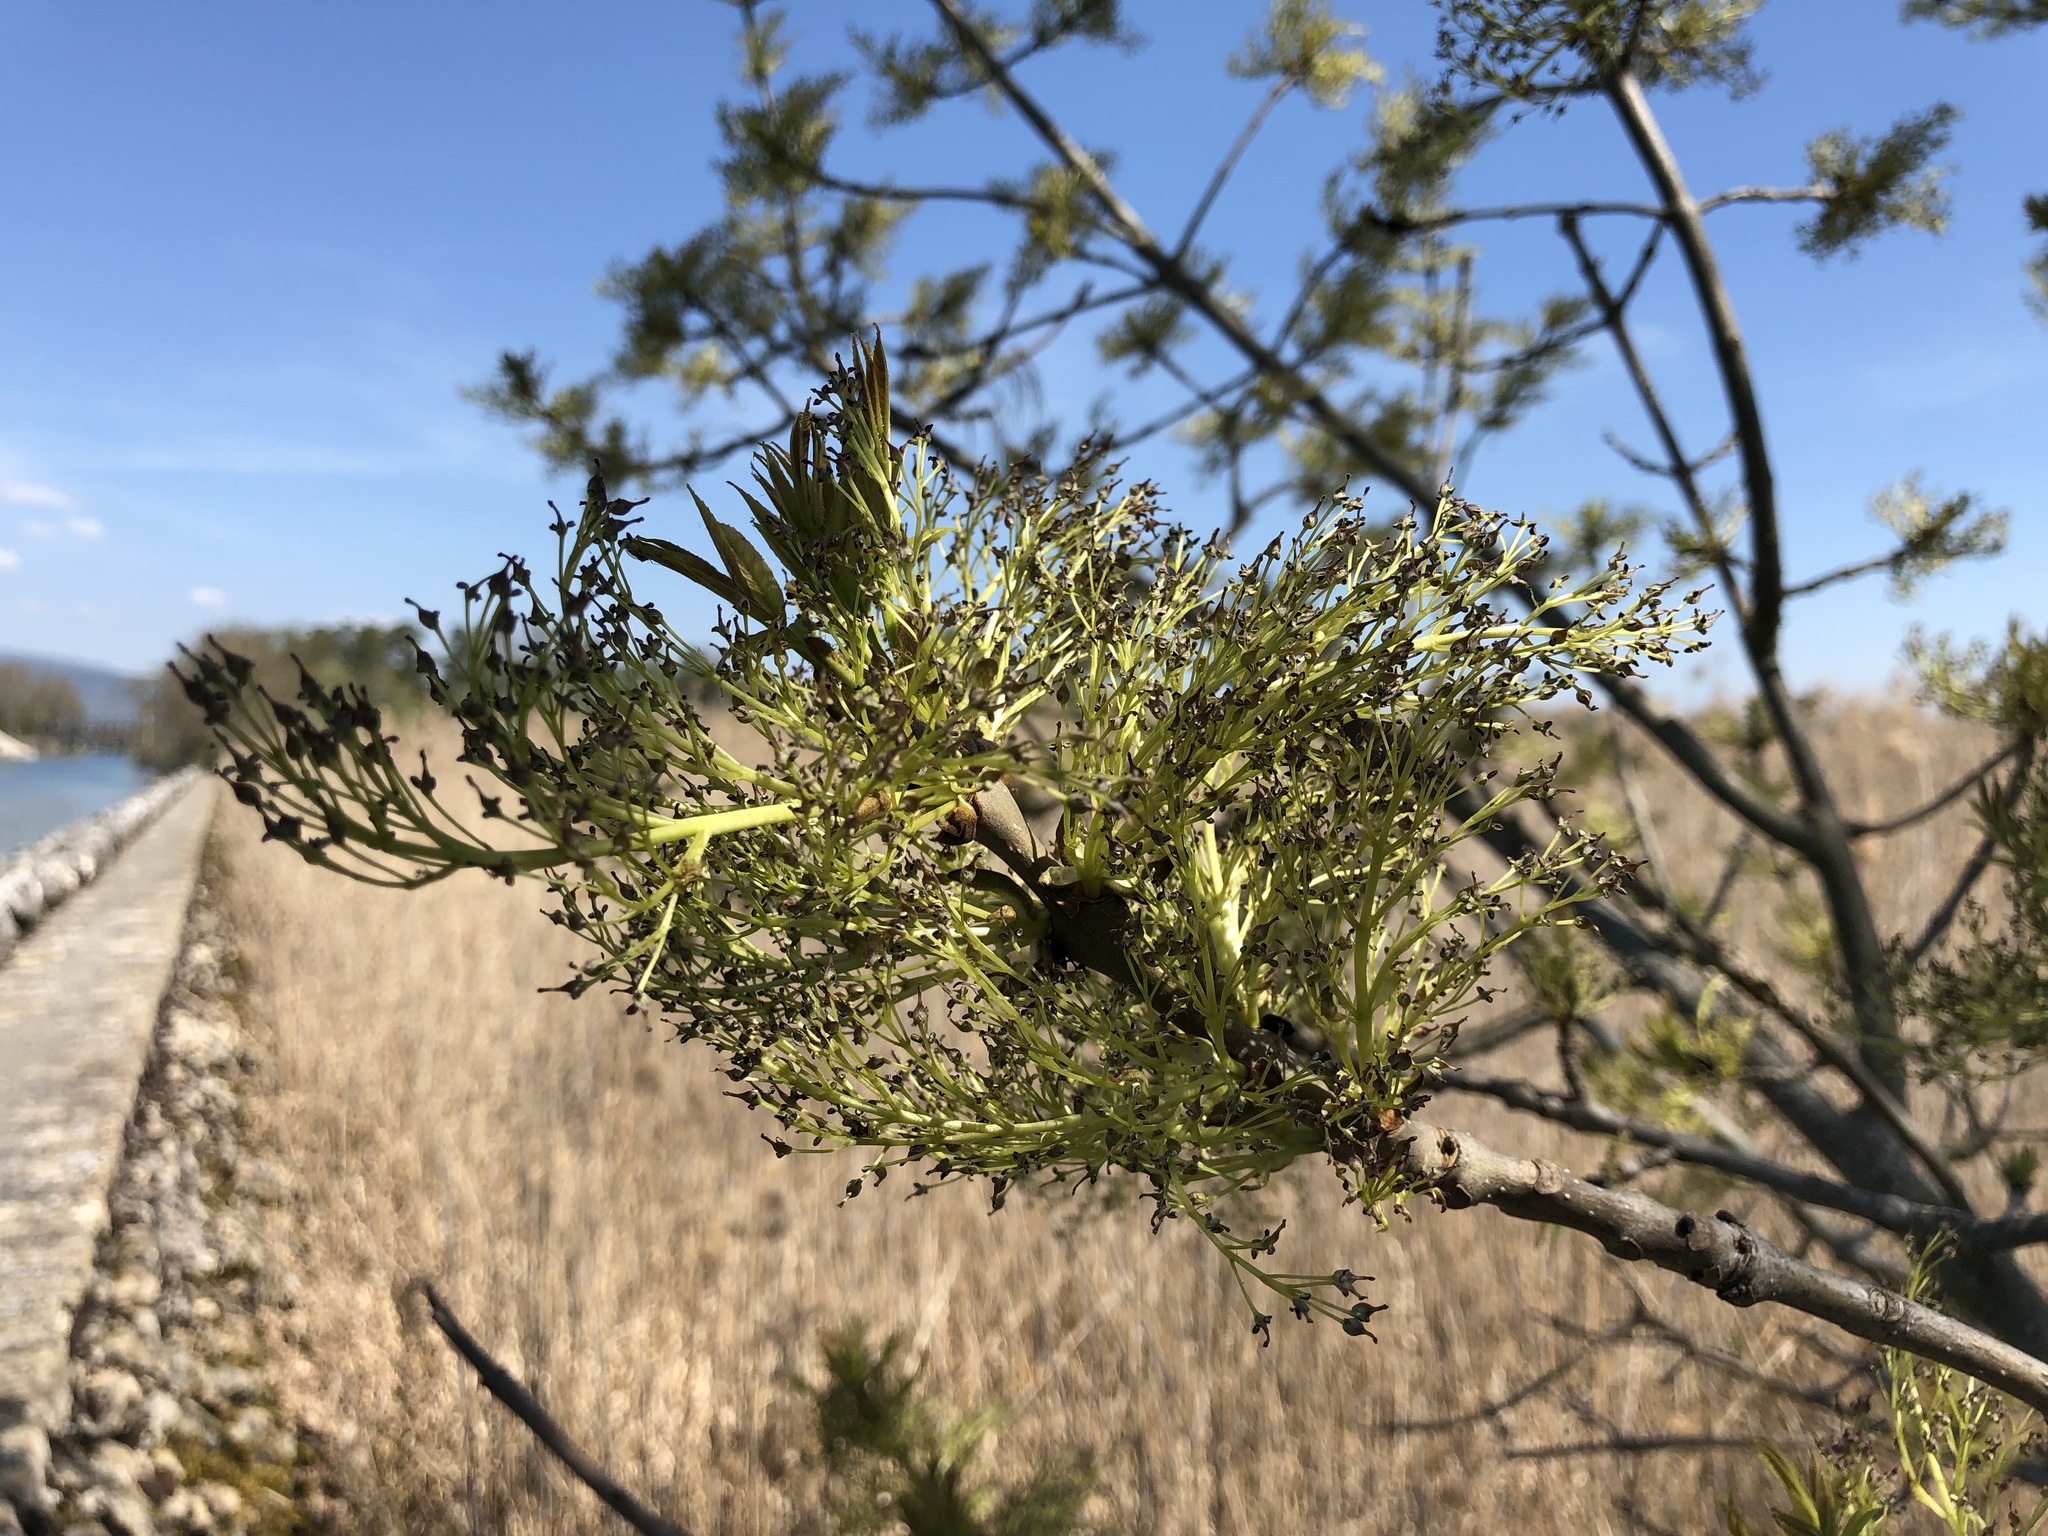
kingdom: Plantae
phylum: Tracheophyta
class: Magnoliopsida
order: Lamiales
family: Oleaceae
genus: Fraxinus
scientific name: Fraxinus excelsior
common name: European ash
